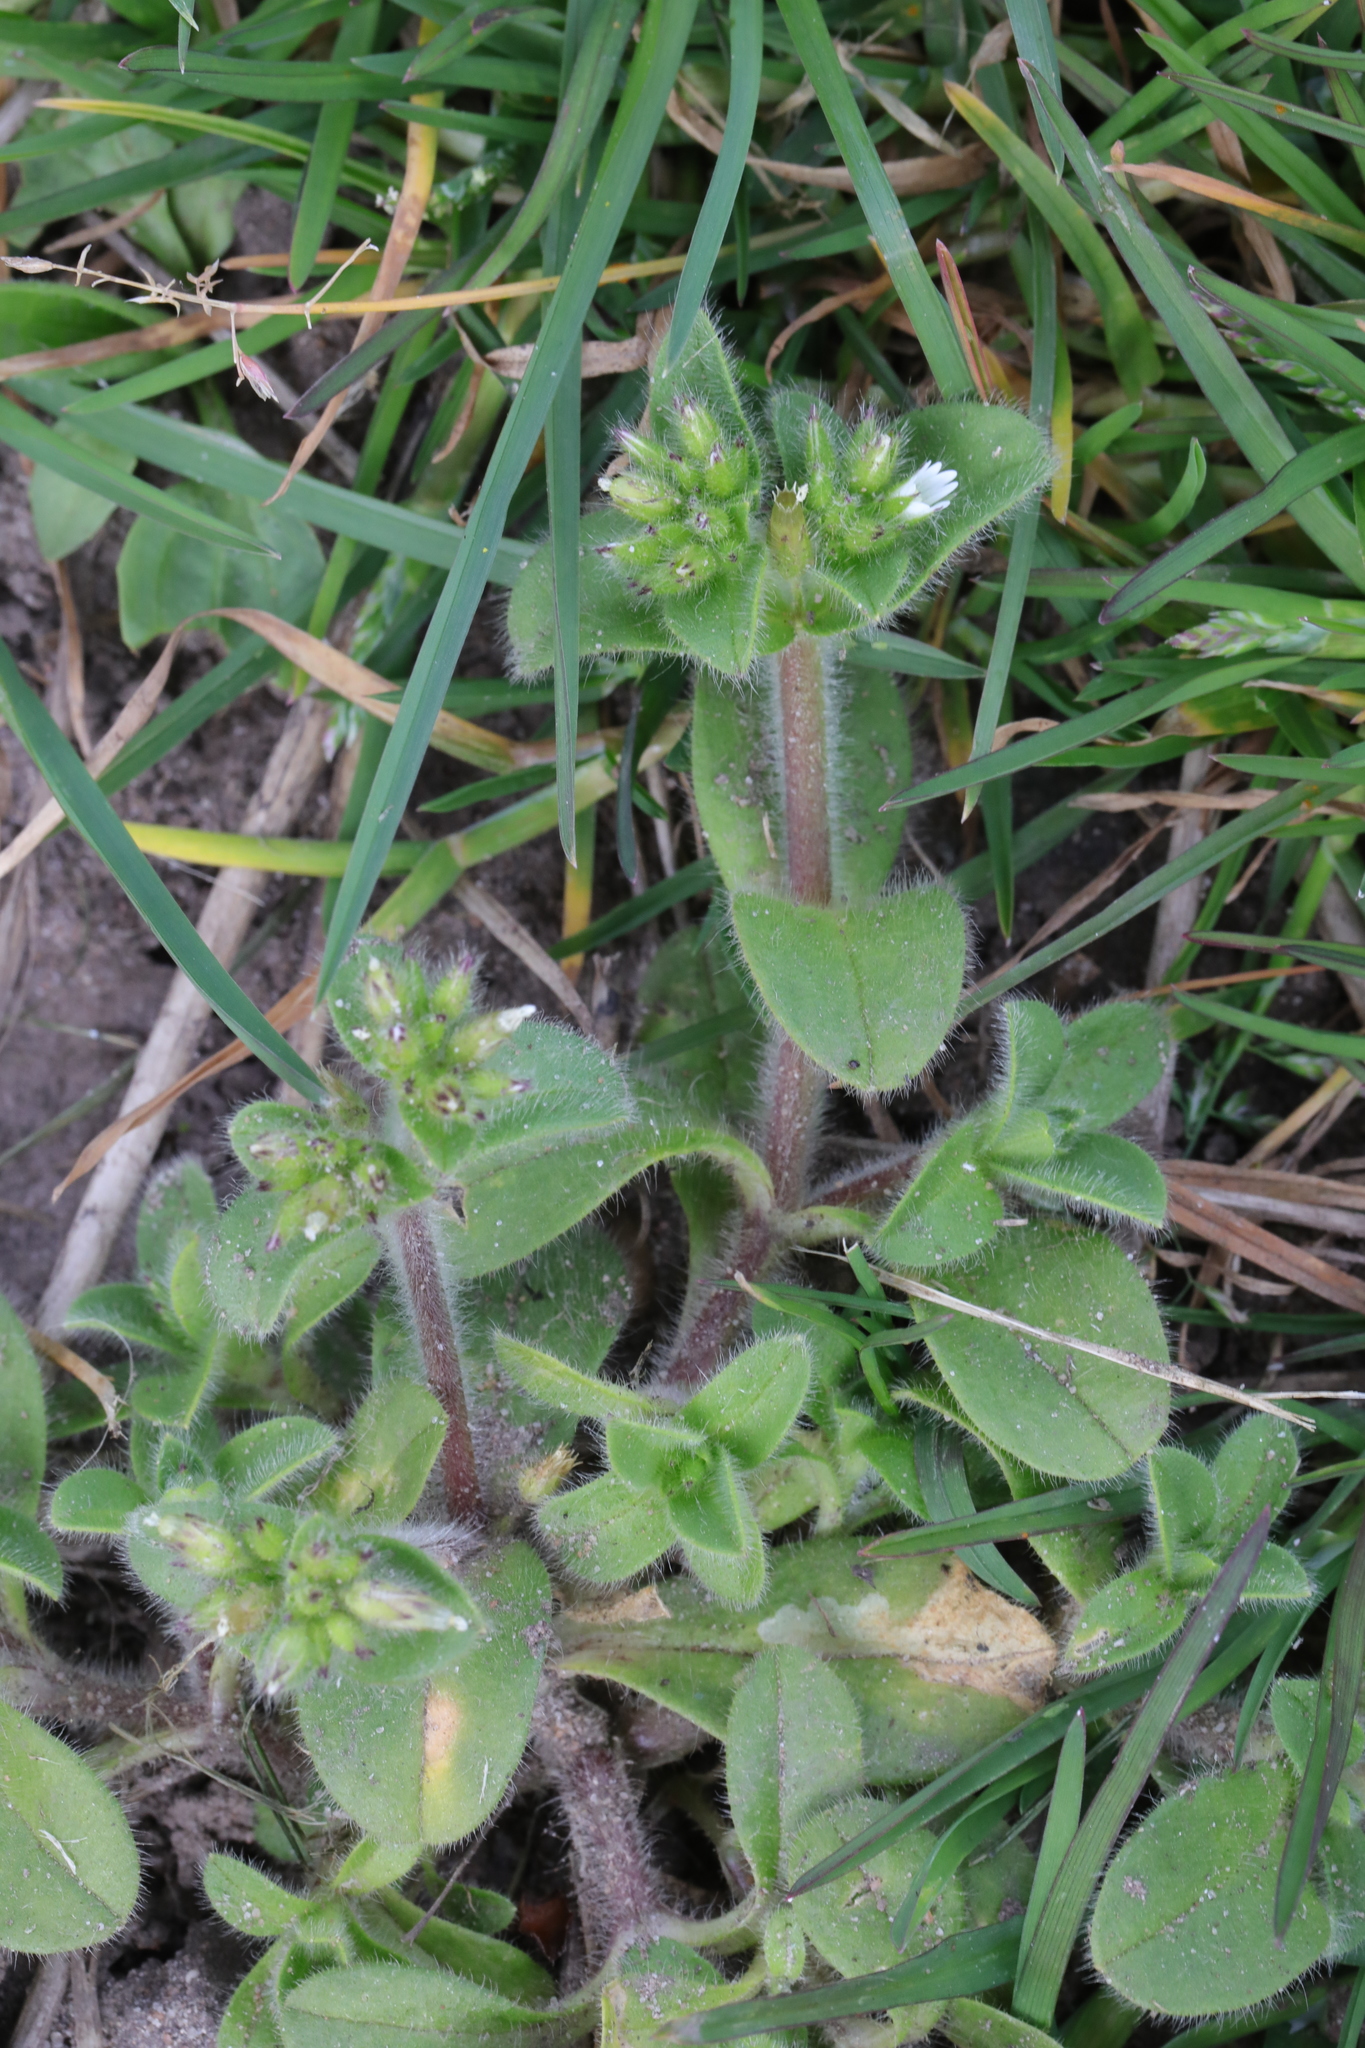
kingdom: Plantae
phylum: Tracheophyta
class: Magnoliopsida
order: Caryophyllales
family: Caryophyllaceae
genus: Cerastium
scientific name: Cerastium glomeratum
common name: Sticky chickweed
